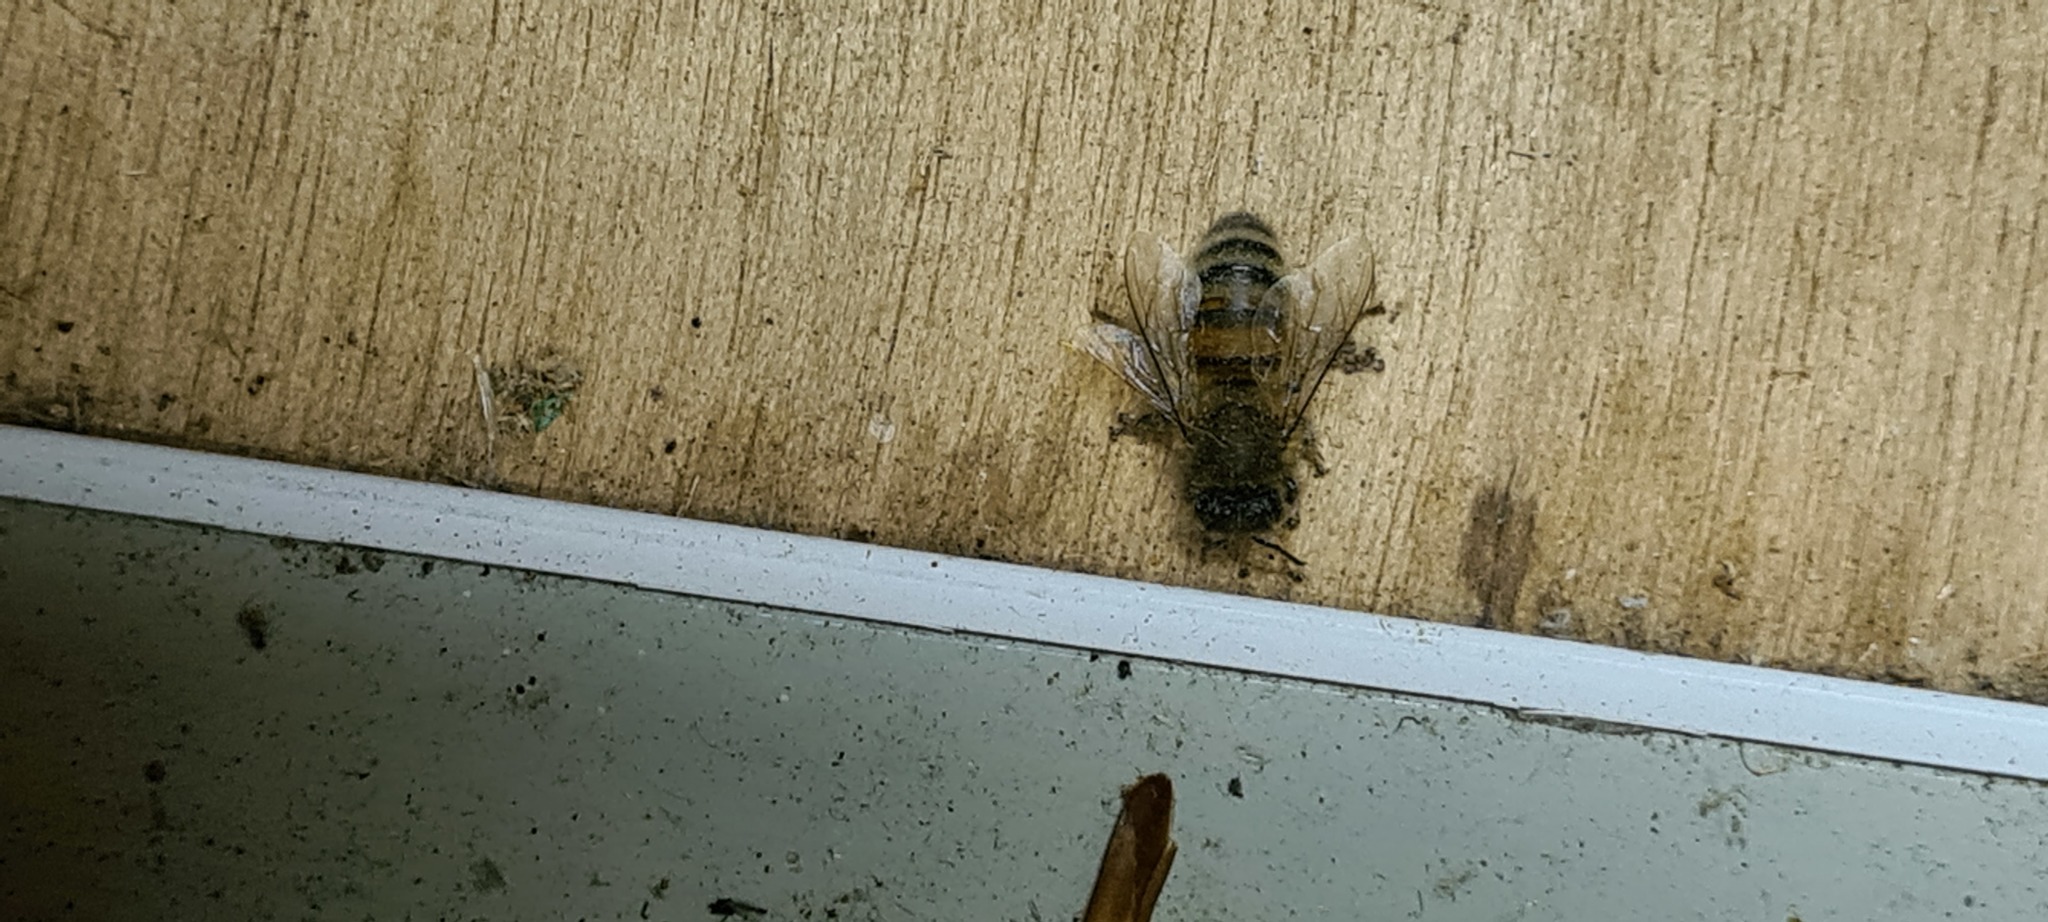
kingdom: Animalia
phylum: Arthropoda
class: Insecta
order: Hymenoptera
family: Apidae
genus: Apis
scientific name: Apis mellifera
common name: Honey bee
